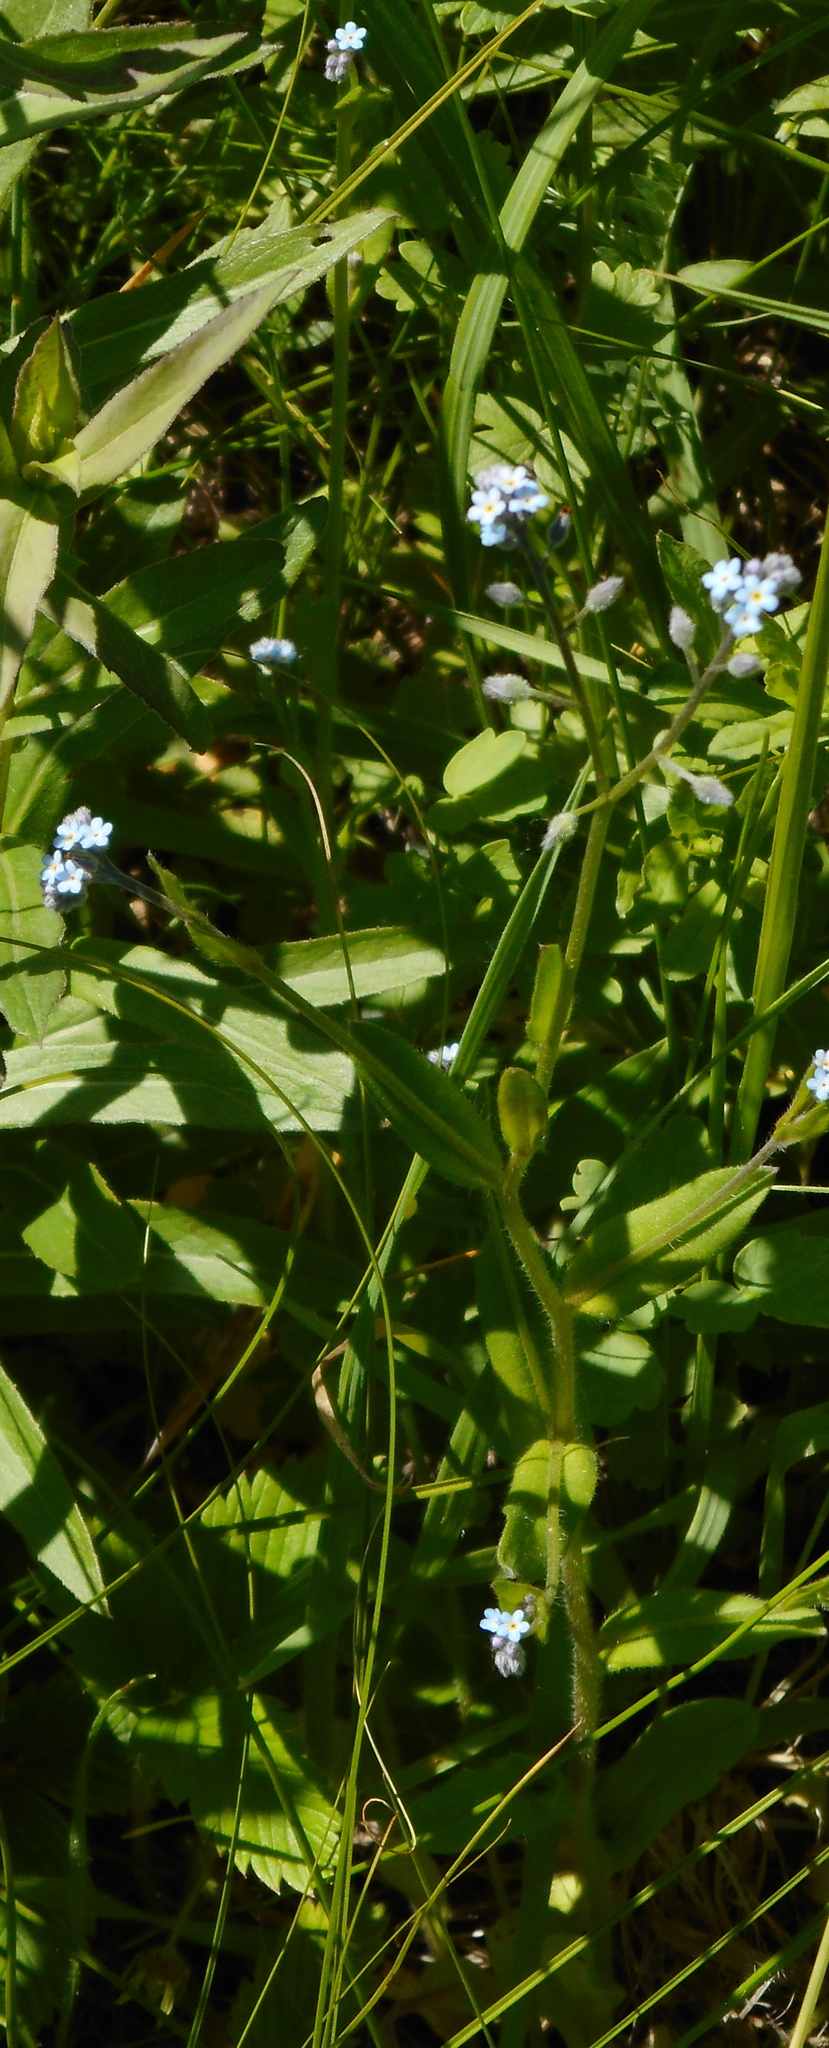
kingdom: Plantae
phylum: Tracheophyta
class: Magnoliopsida
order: Boraginales
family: Boraginaceae
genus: Myosotis
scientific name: Myosotis arvensis
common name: Field forget-me-not
